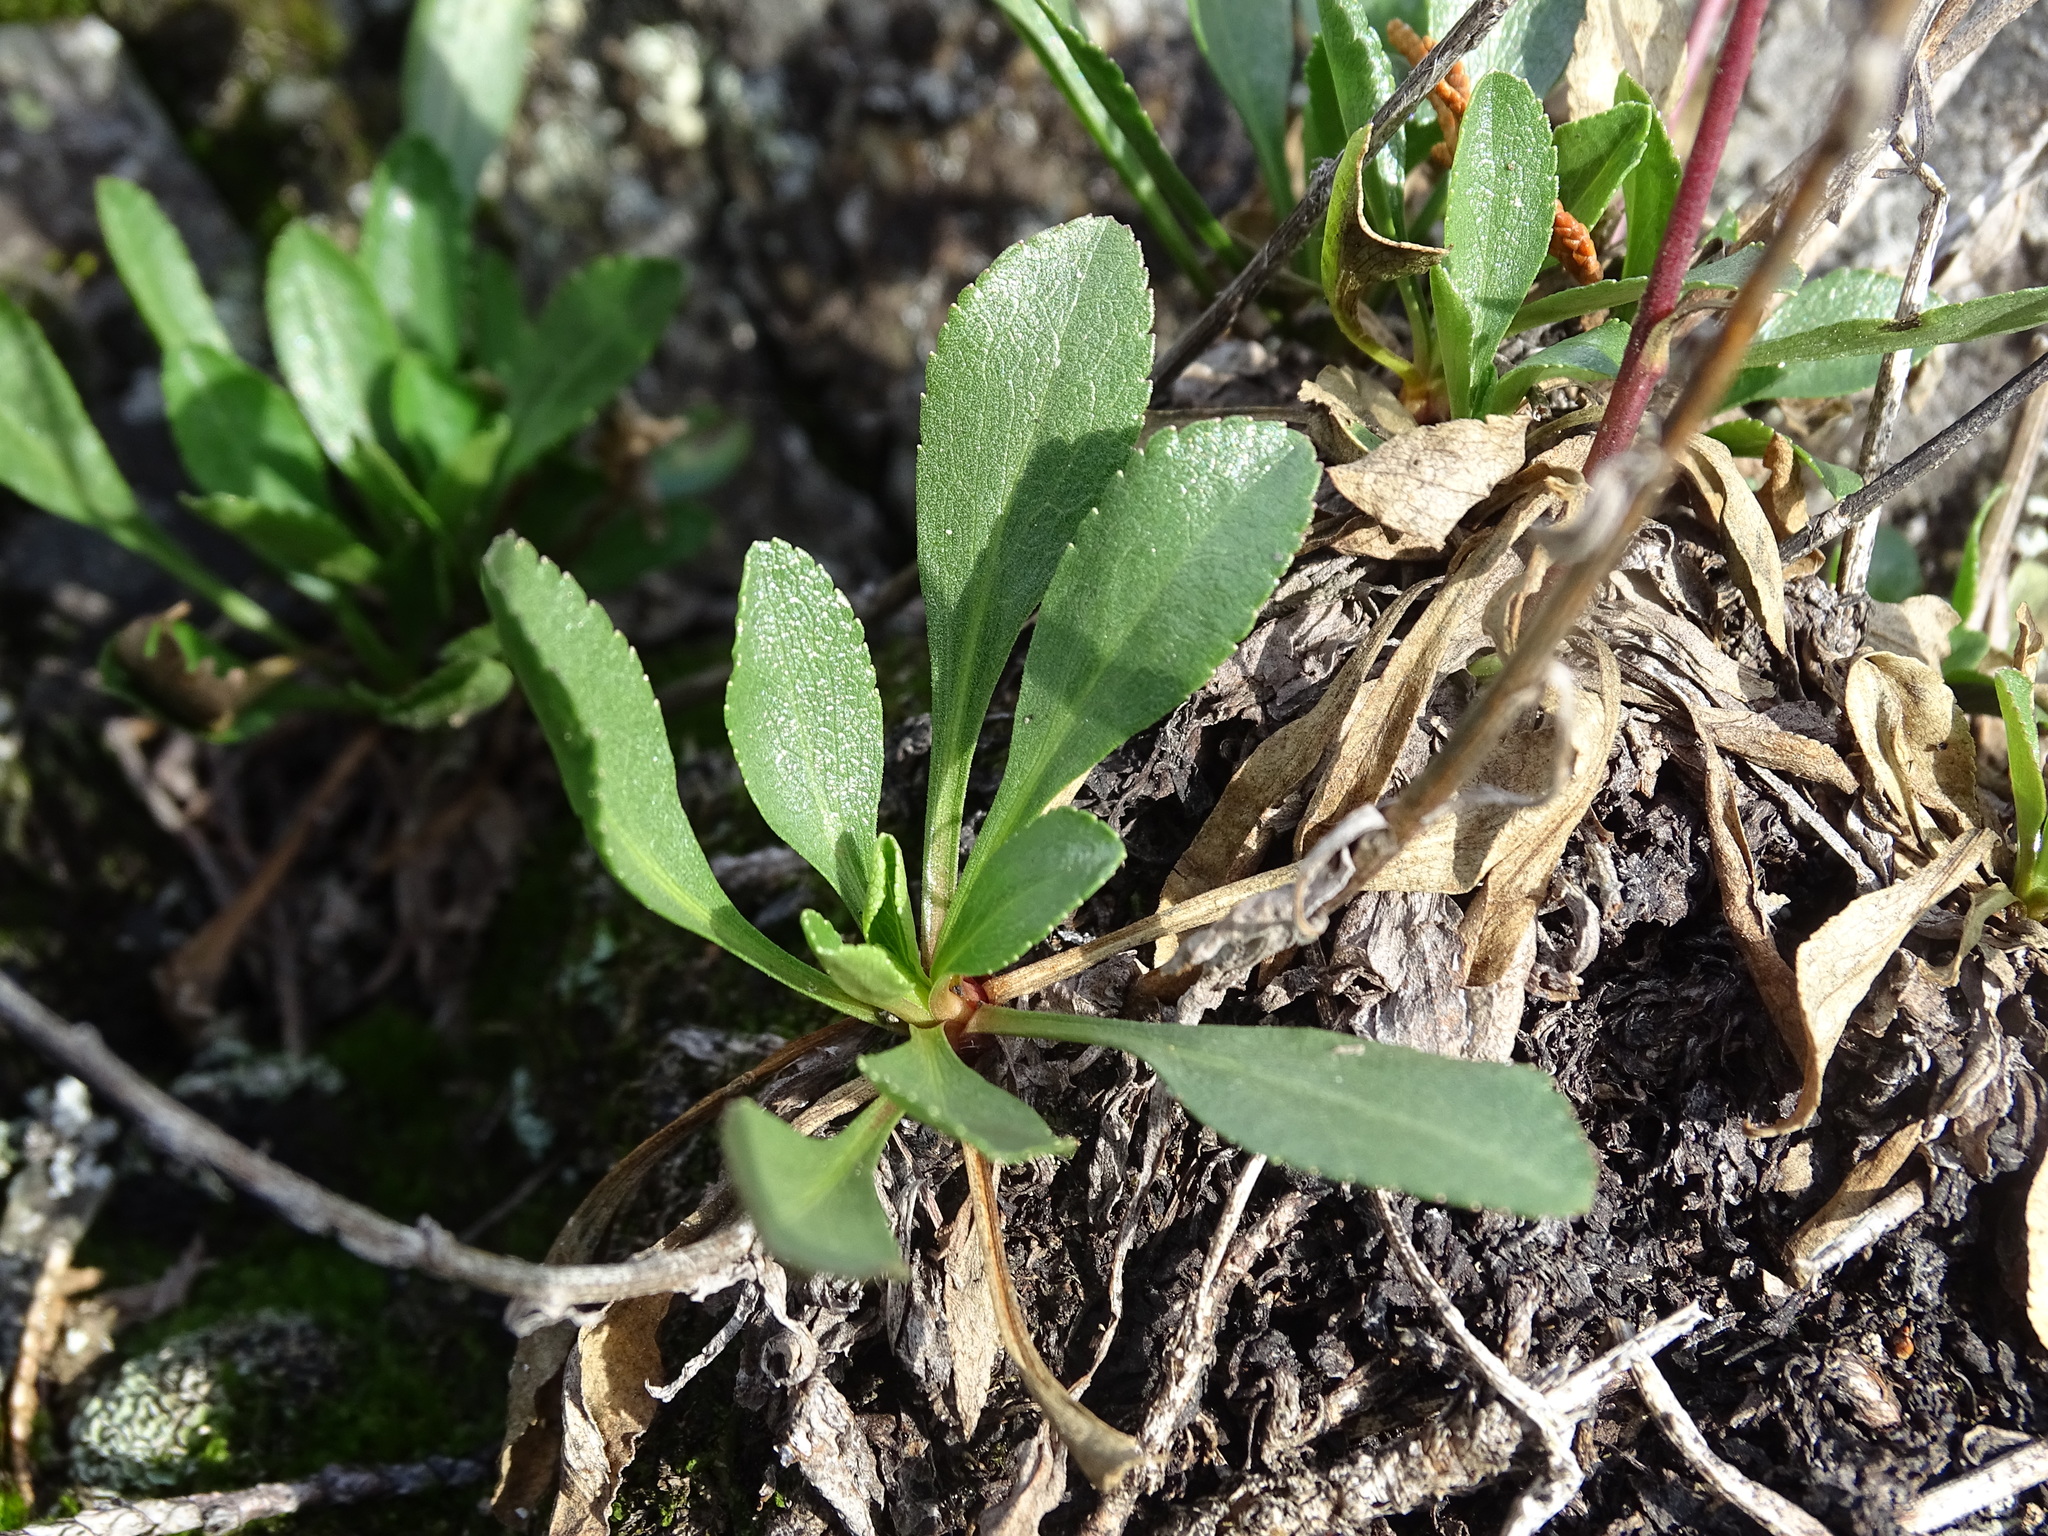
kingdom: Plantae
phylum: Tracheophyta
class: Magnoliopsida
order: Asterales
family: Asteraceae
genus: Solidago
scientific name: Solidago glutinosa
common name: Decumbent goldenrod
